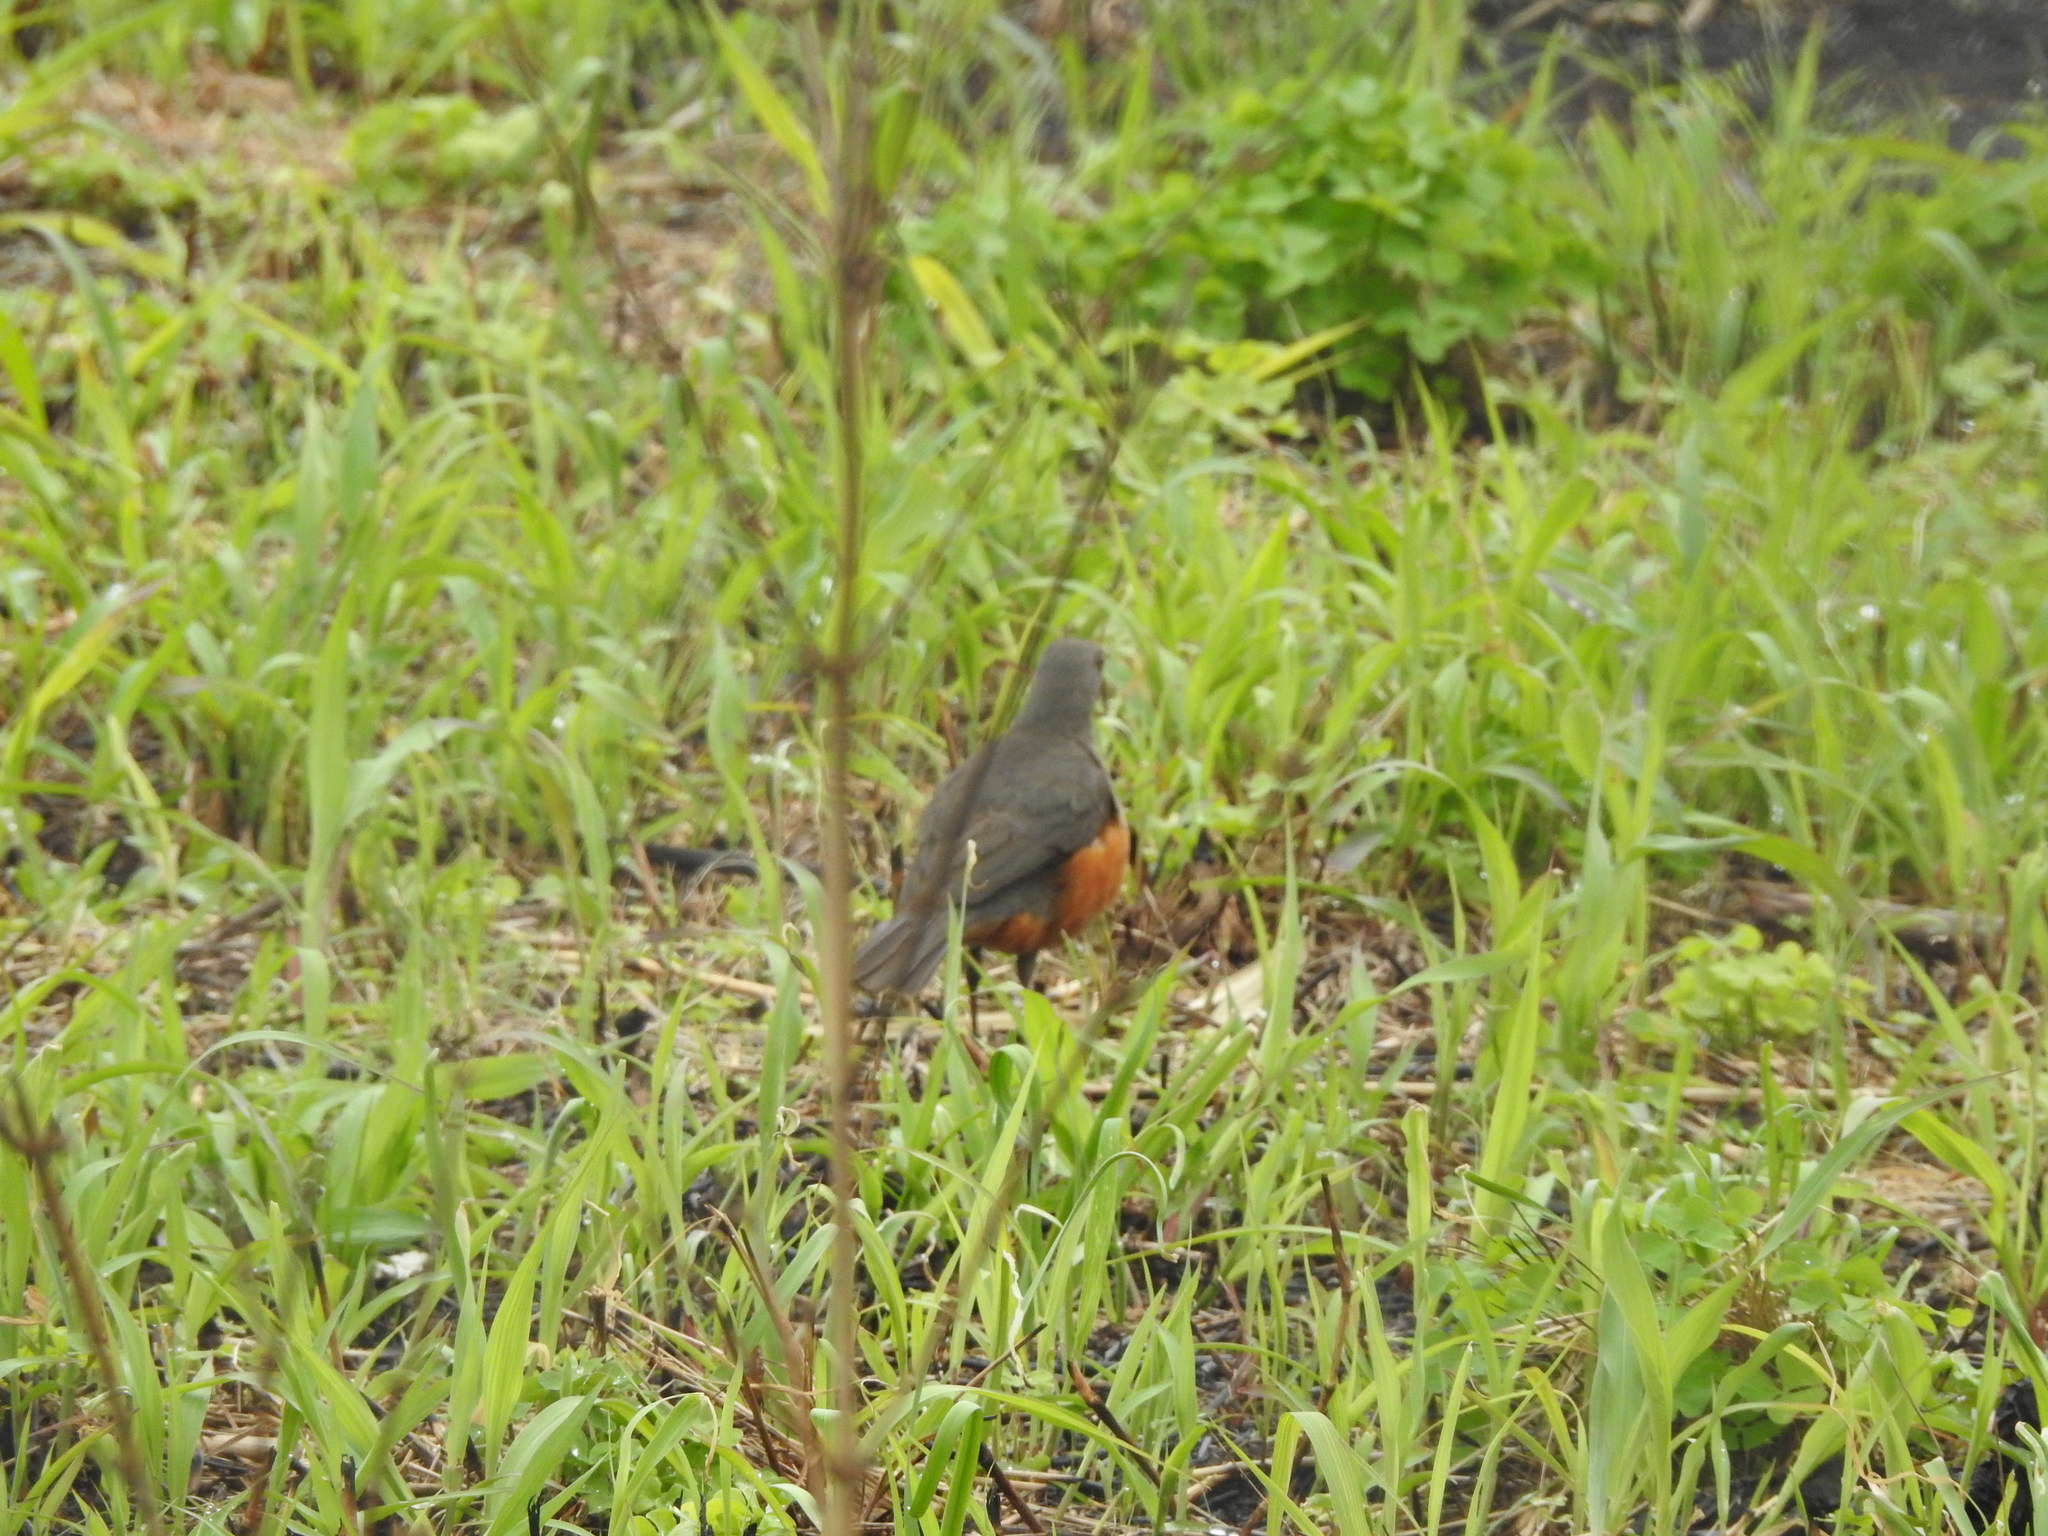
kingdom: Animalia
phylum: Chordata
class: Aves
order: Passeriformes
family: Turdidae
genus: Turdus
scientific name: Turdus rufiventris
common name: Rufous-bellied thrush
